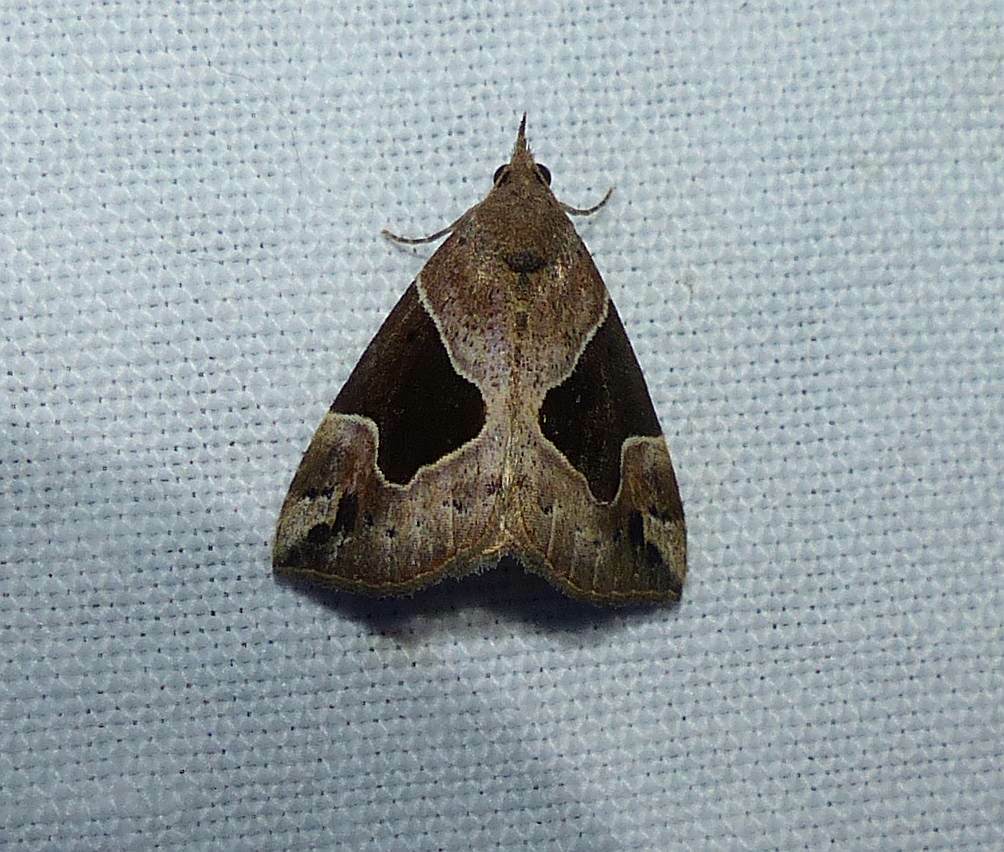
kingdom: Animalia
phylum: Arthropoda
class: Insecta
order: Lepidoptera
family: Erebidae
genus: Hypena
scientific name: Hypena manalis
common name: Flowing-line bomolocha moth
